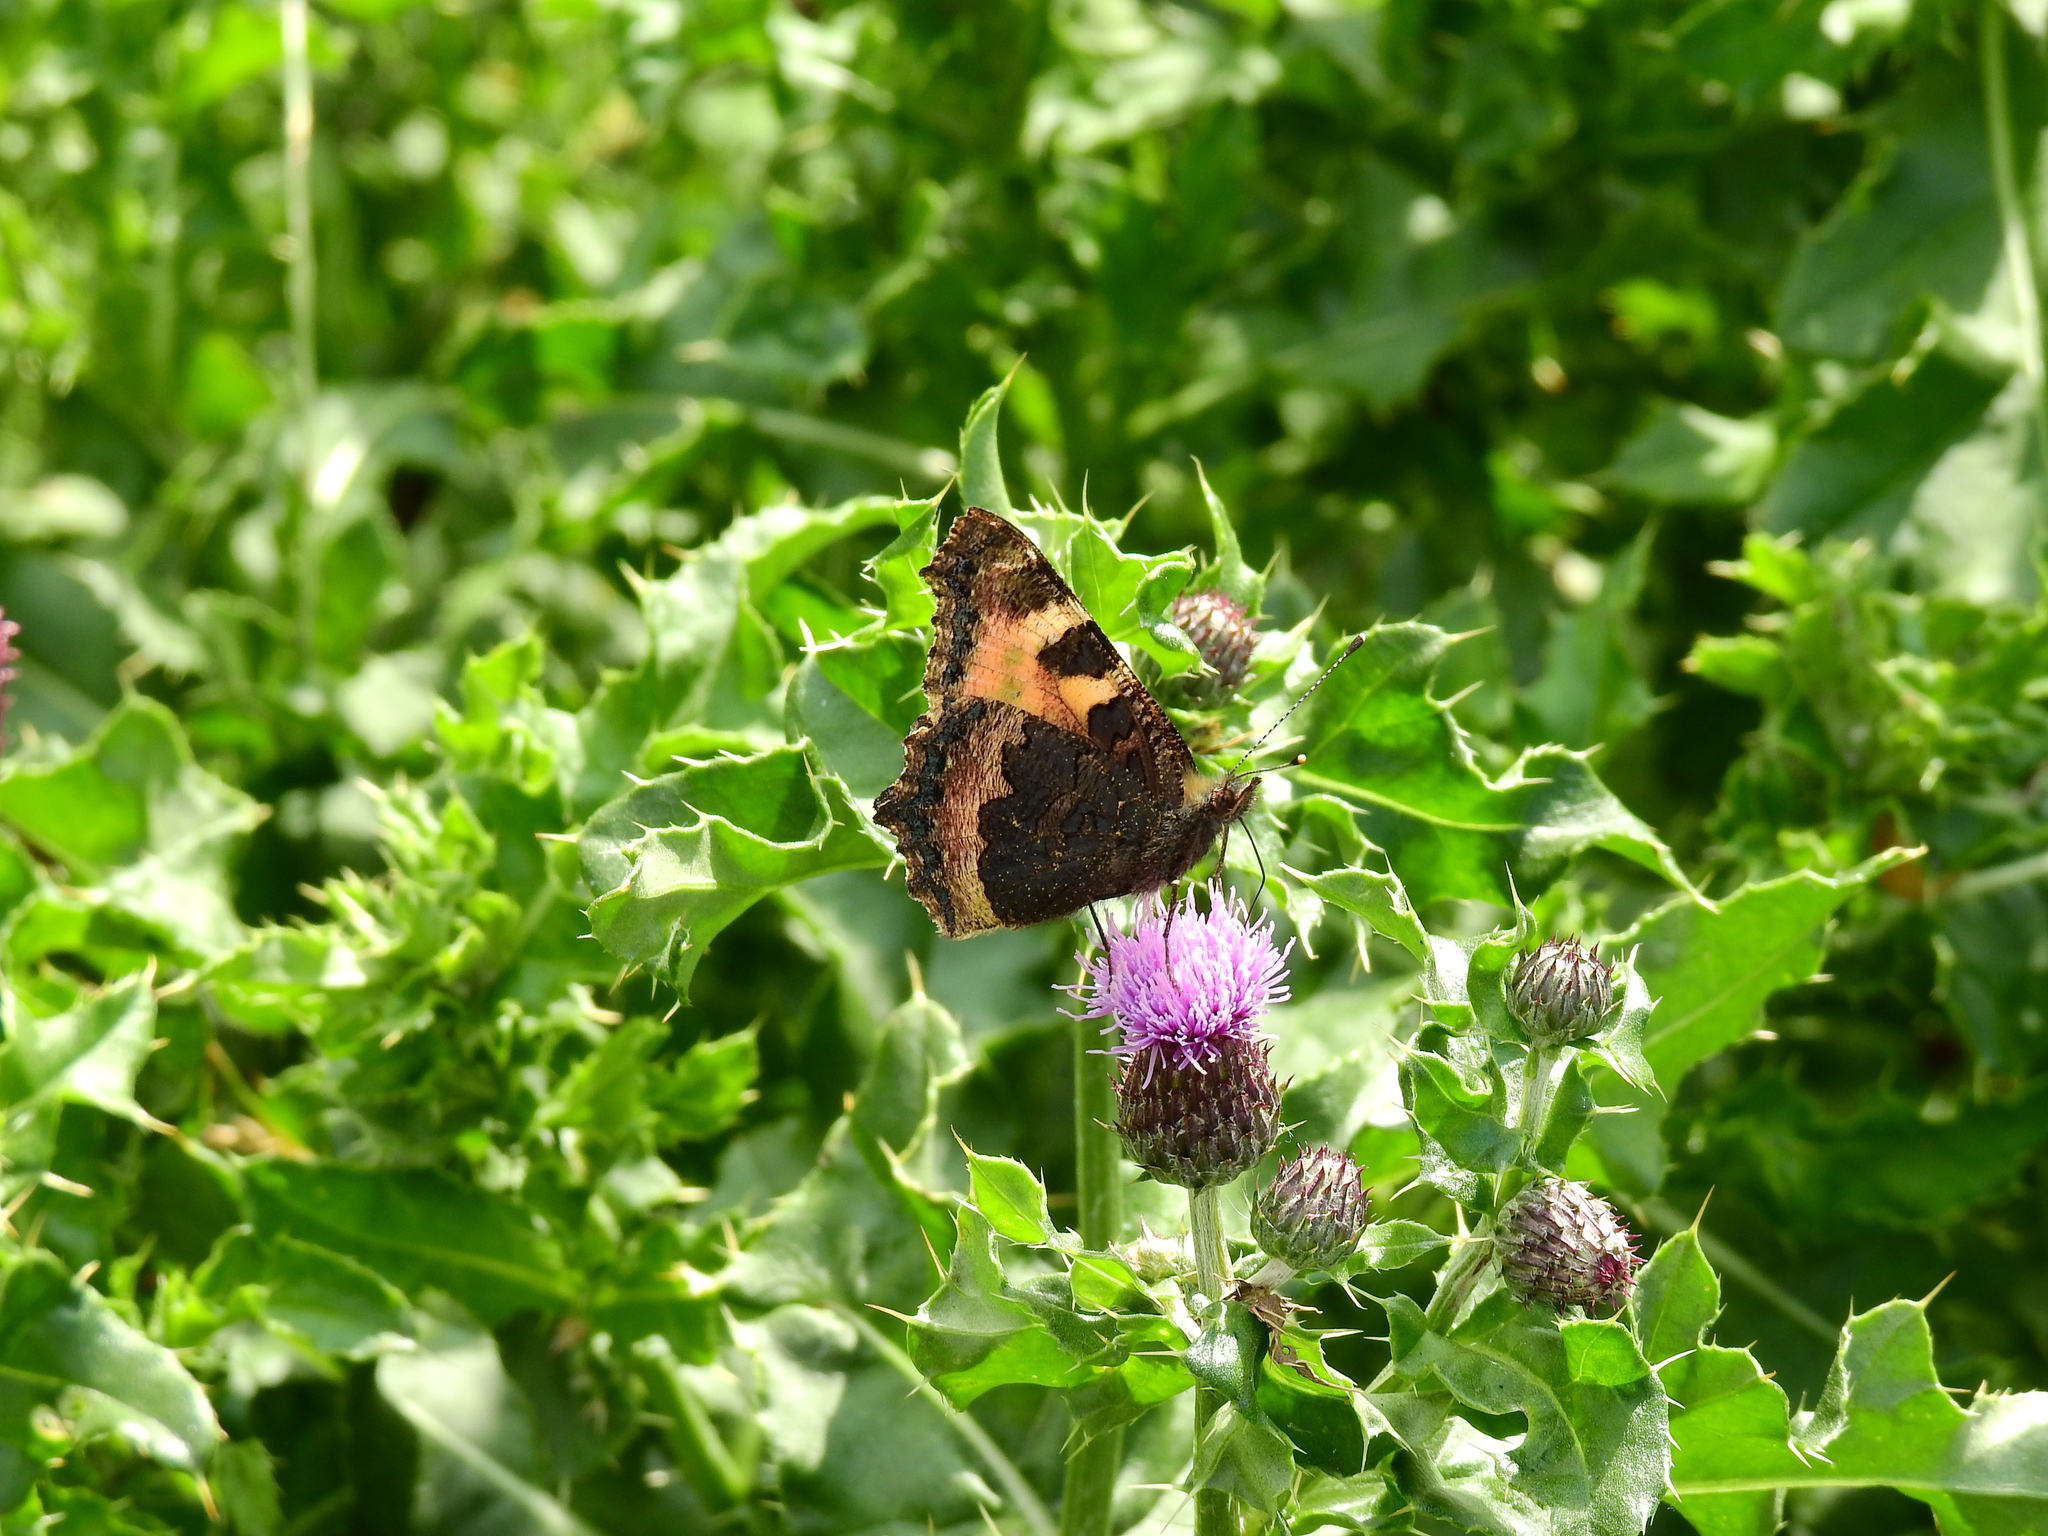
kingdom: Animalia
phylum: Arthropoda
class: Insecta
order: Lepidoptera
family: Nymphalidae
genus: Aglais
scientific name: Aglais urticae
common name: Small tortoiseshell
